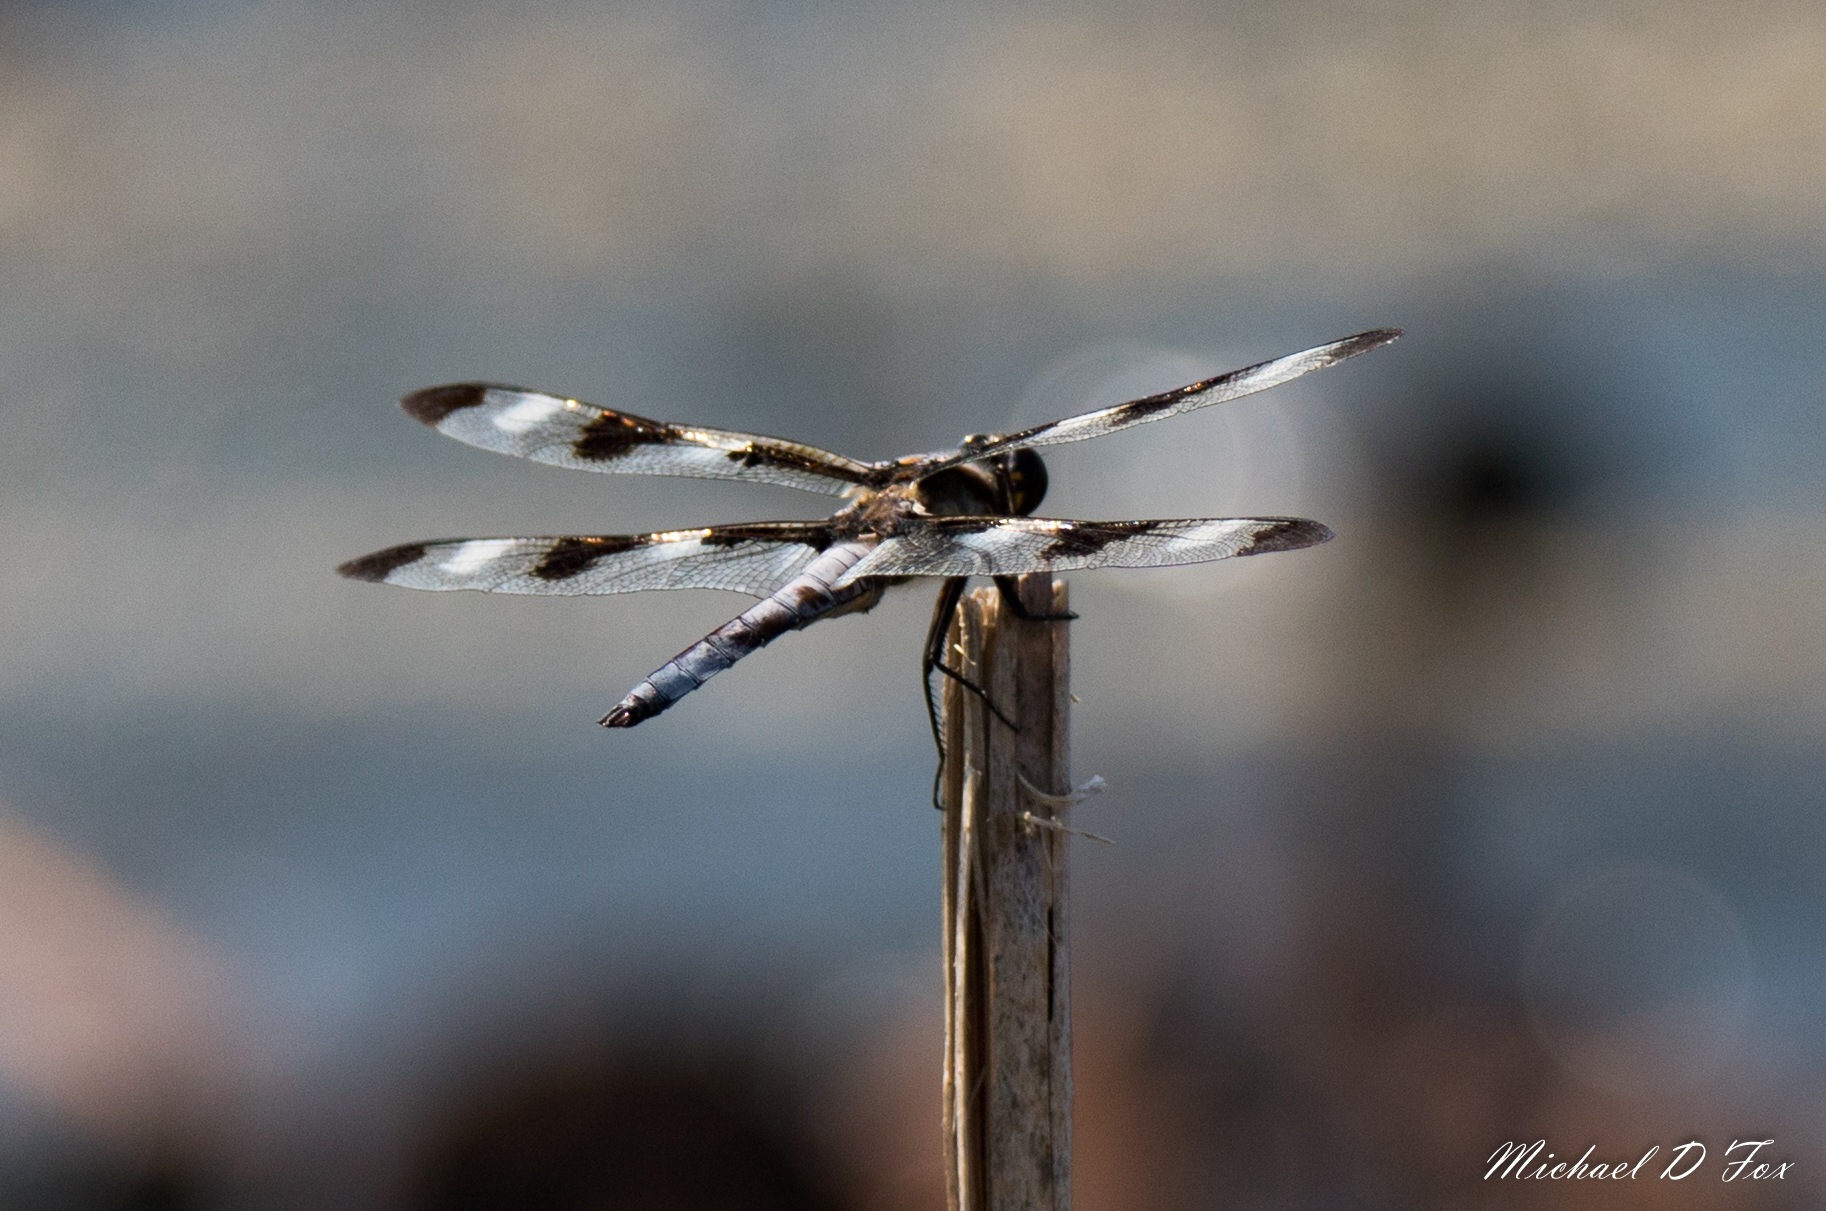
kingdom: Animalia
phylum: Arthropoda
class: Insecta
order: Odonata
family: Libellulidae
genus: Libellula
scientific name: Libellula pulchella
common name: Twelve-spotted skimmer
